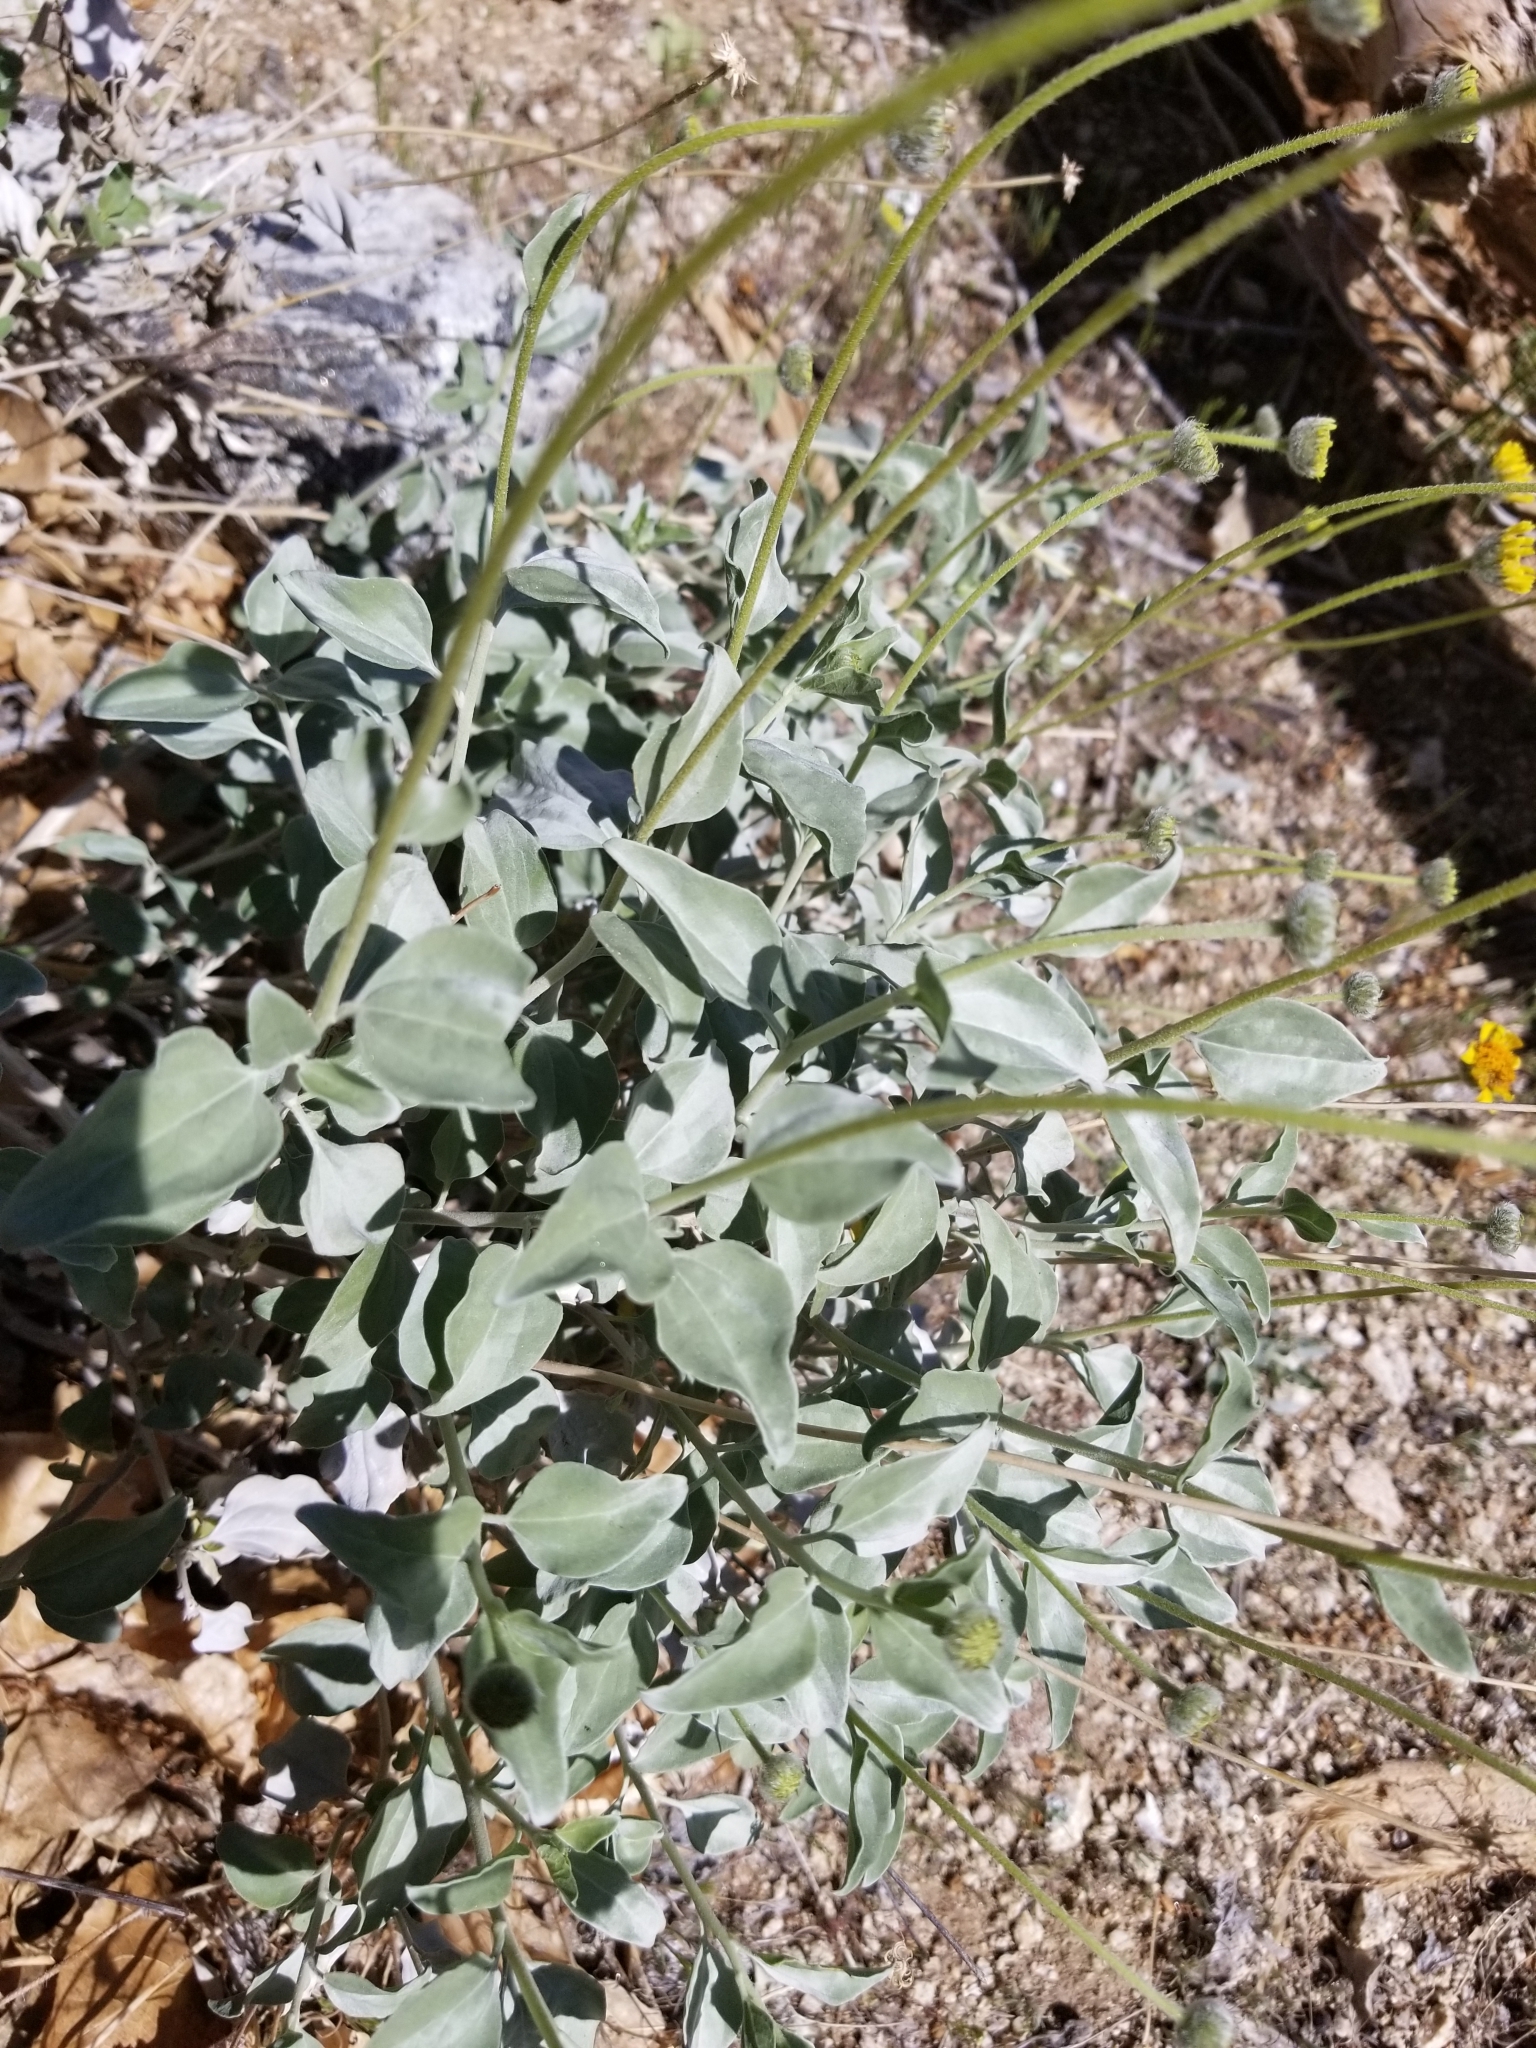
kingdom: Plantae
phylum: Tracheophyta
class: Magnoliopsida
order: Asterales
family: Asteraceae
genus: Encelia
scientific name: Encelia actoni
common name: Acton encelia
